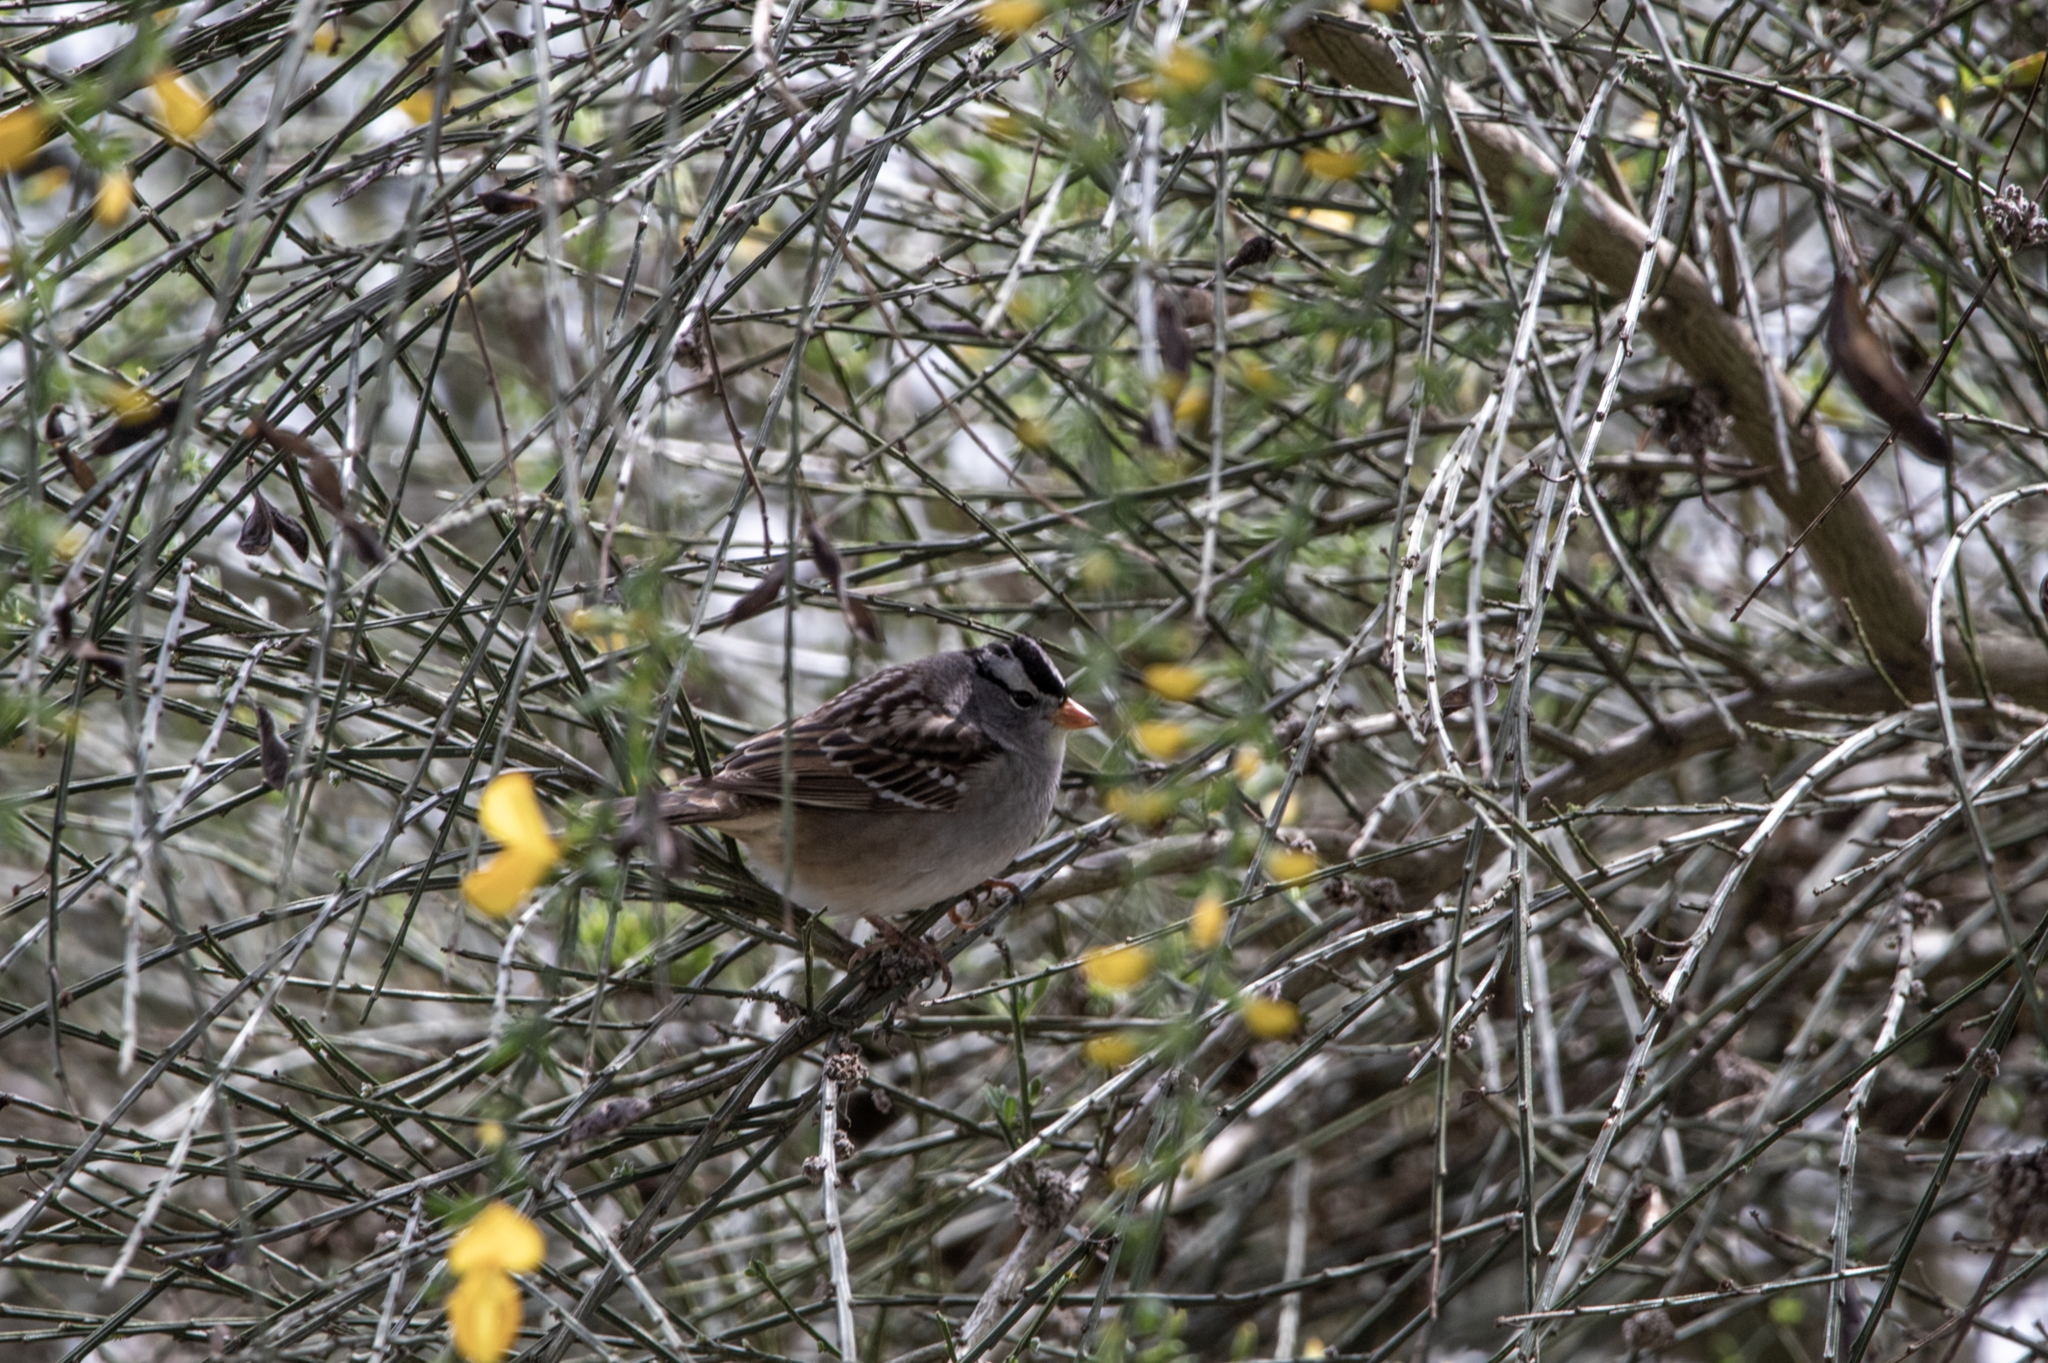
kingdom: Animalia
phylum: Chordata
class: Aves
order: Passeriformes
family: Passerellidae
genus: Zonotrichia
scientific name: Zonotrichia leucophrys
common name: White-crowned sparrow
